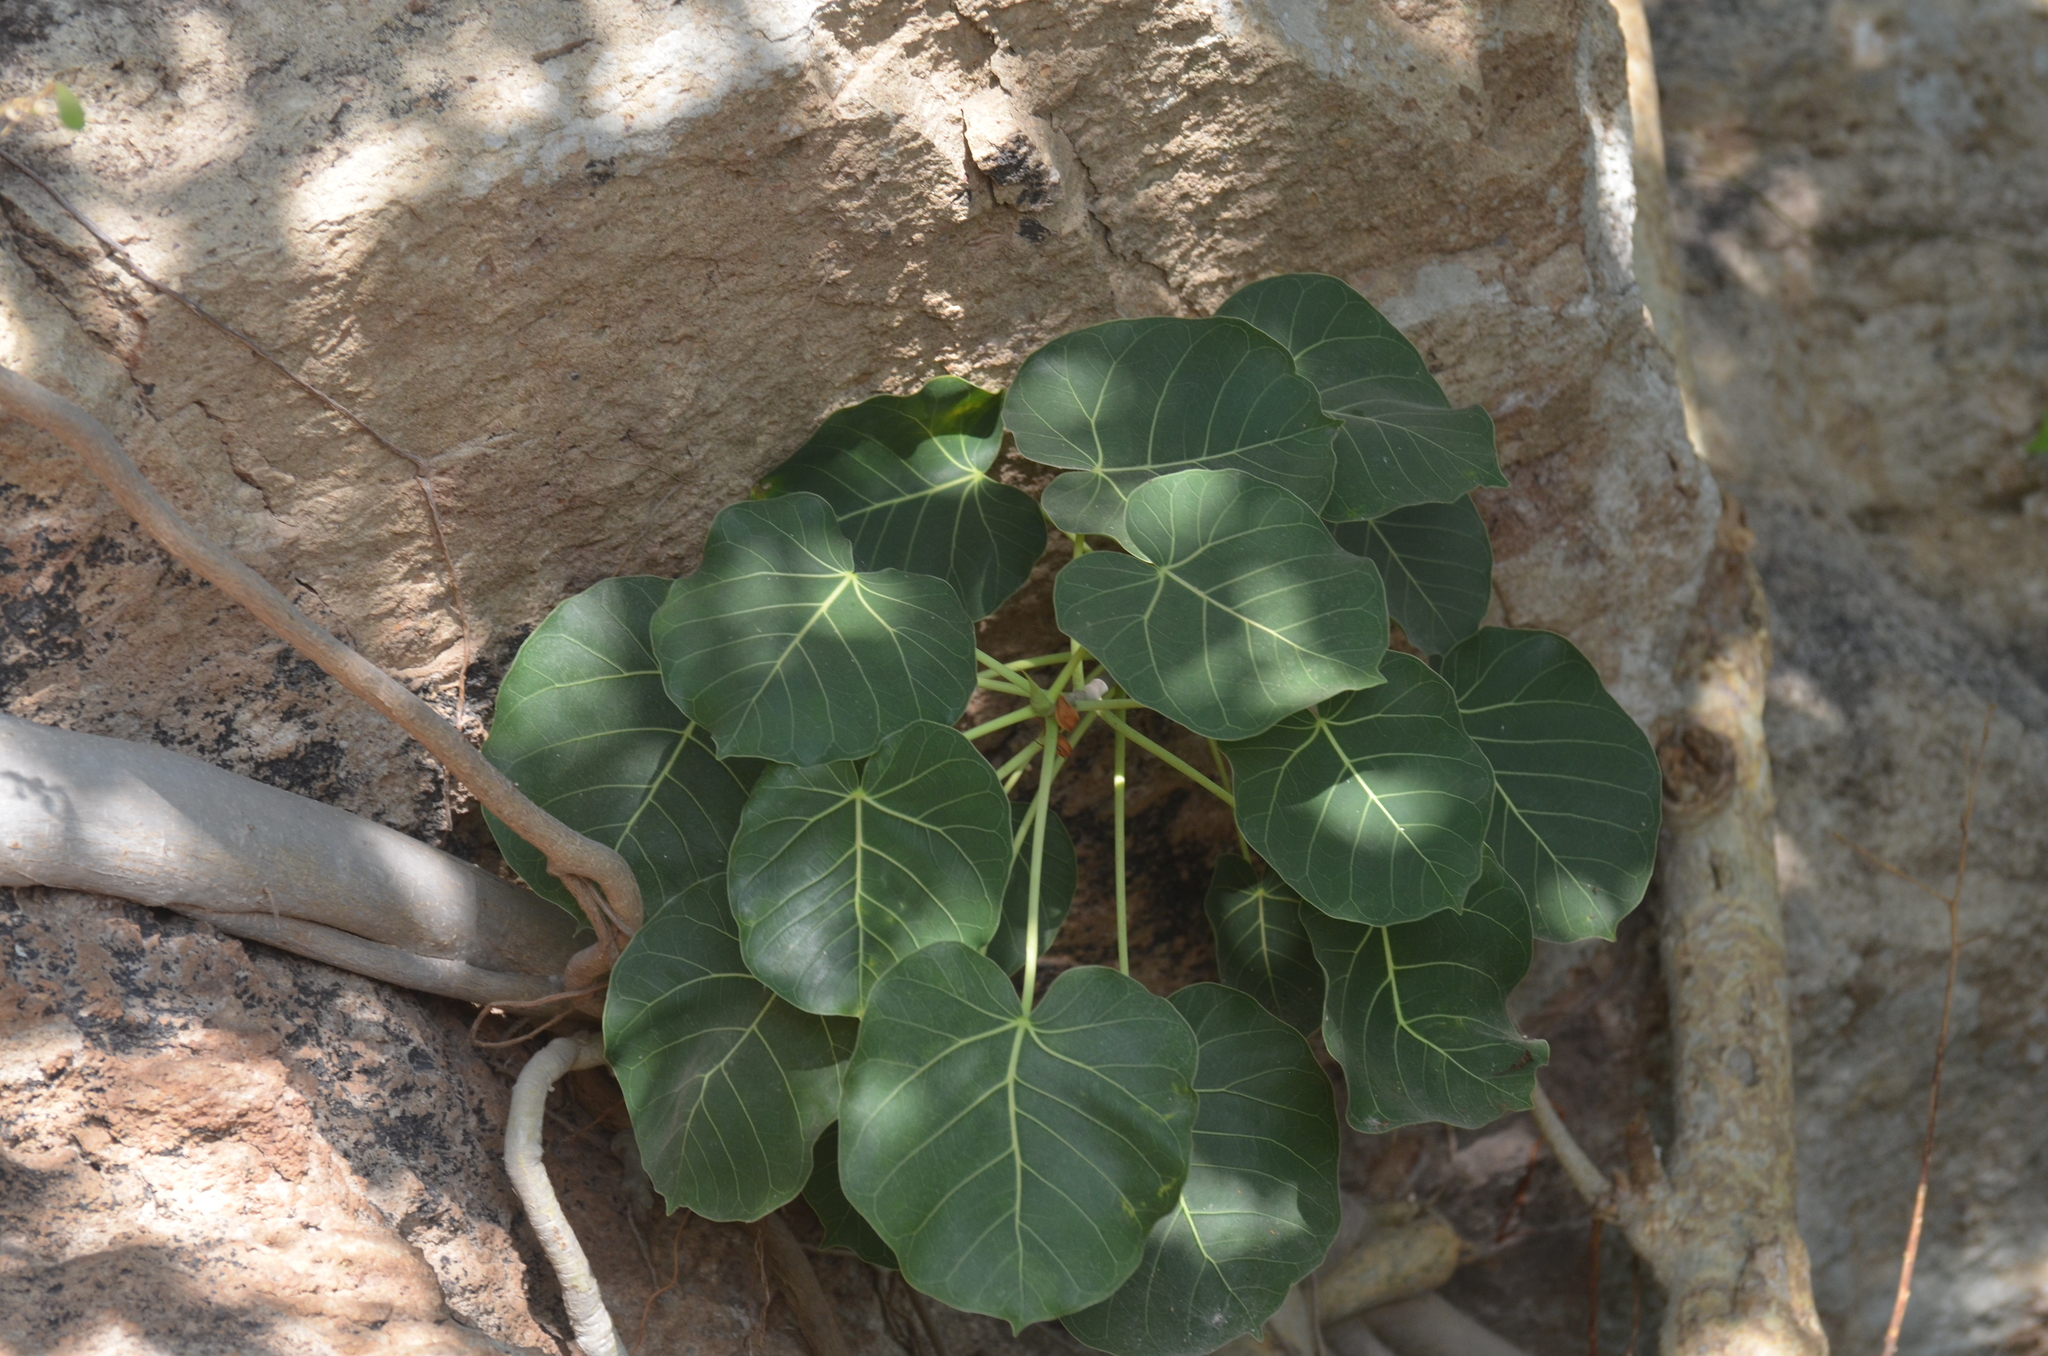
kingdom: Plantae
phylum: Tracheophyta
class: Magnoliopsida
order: Rosales
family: Moraceae
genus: Ficus
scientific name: Ficus petiolaris
